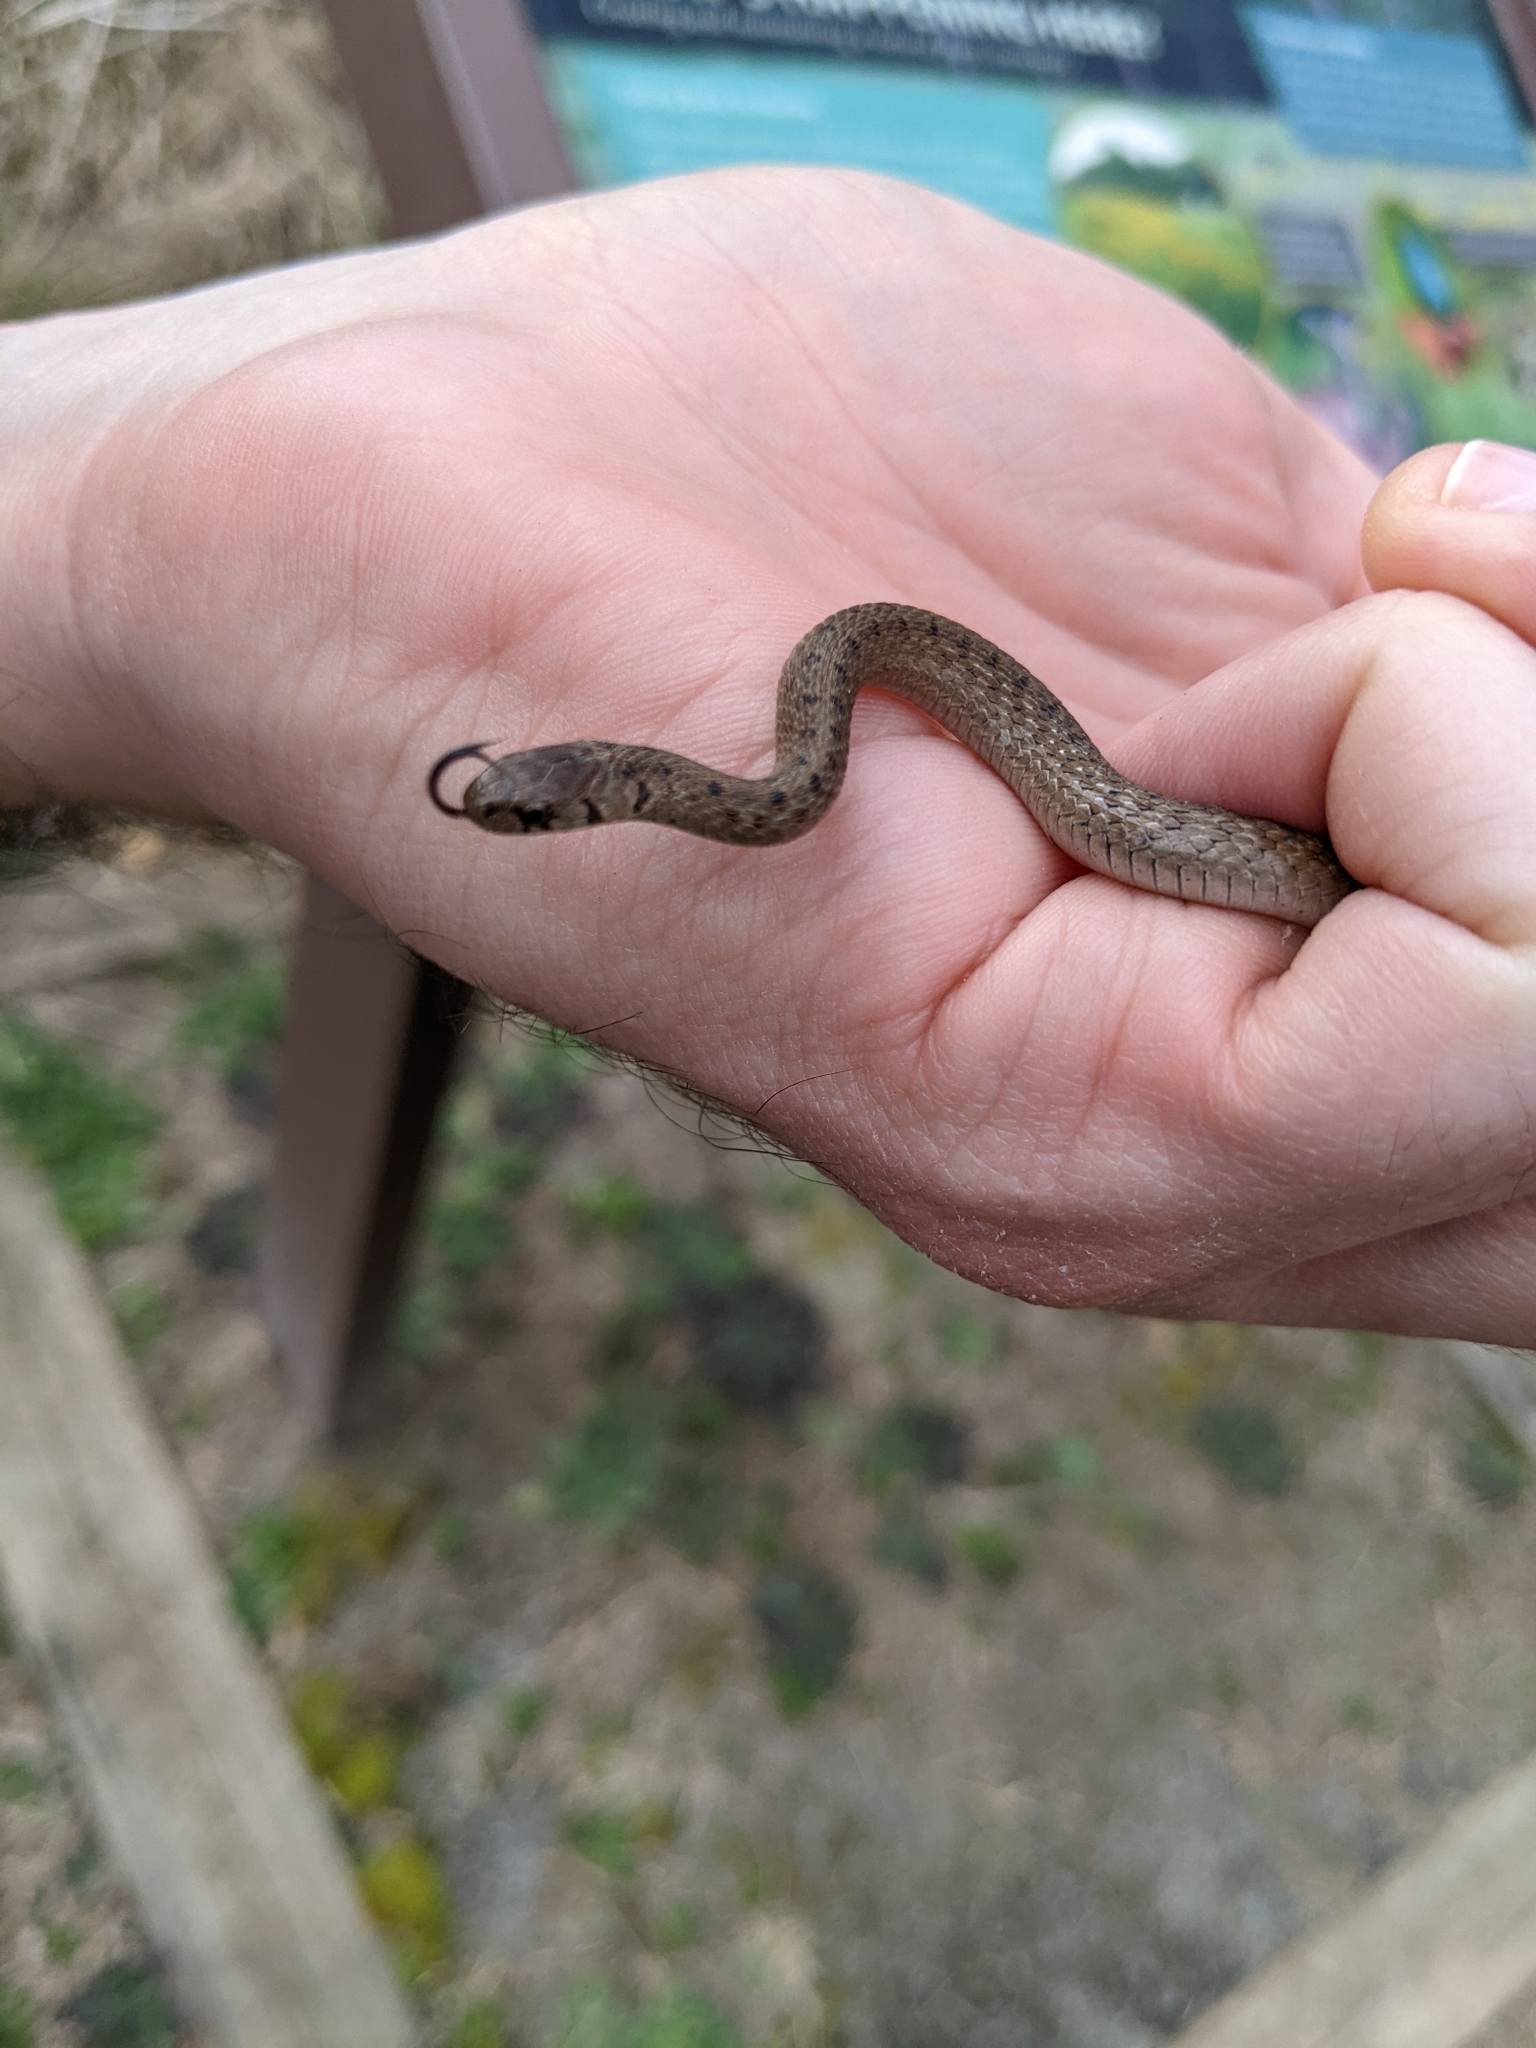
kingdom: Animalia
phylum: Chordata
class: Squamata
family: Colubridae
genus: Storeria
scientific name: Storeria dekayi
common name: (dekay’s) brown snake
